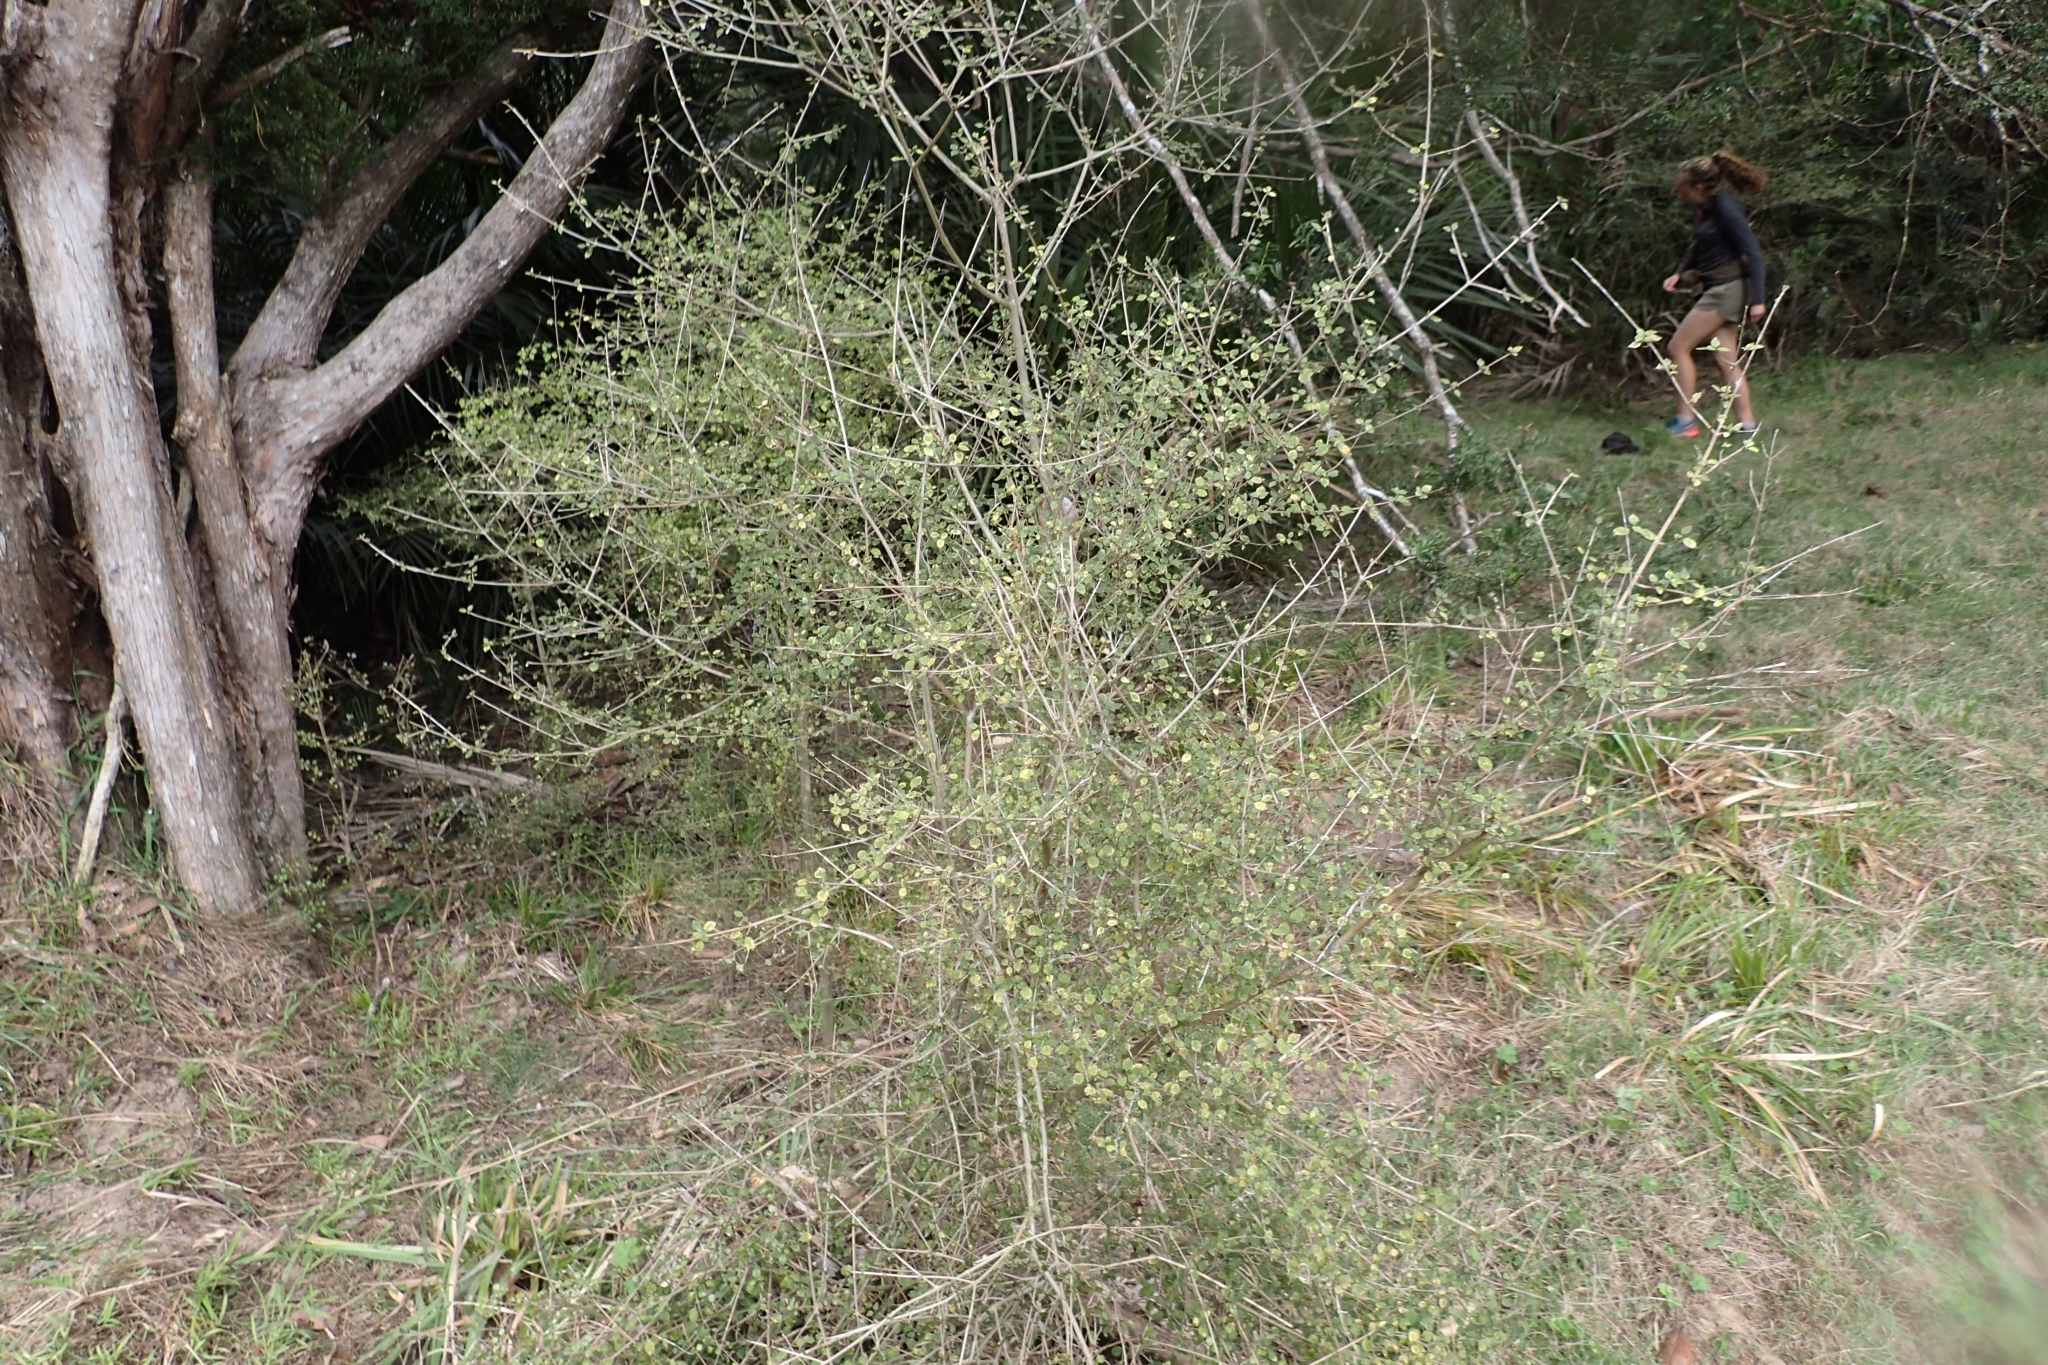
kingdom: Plantae
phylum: Tracheophyta
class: Magnoliopsida
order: Gentianales
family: Rubiaceae
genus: Coprosma
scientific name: Coprosma areolata
